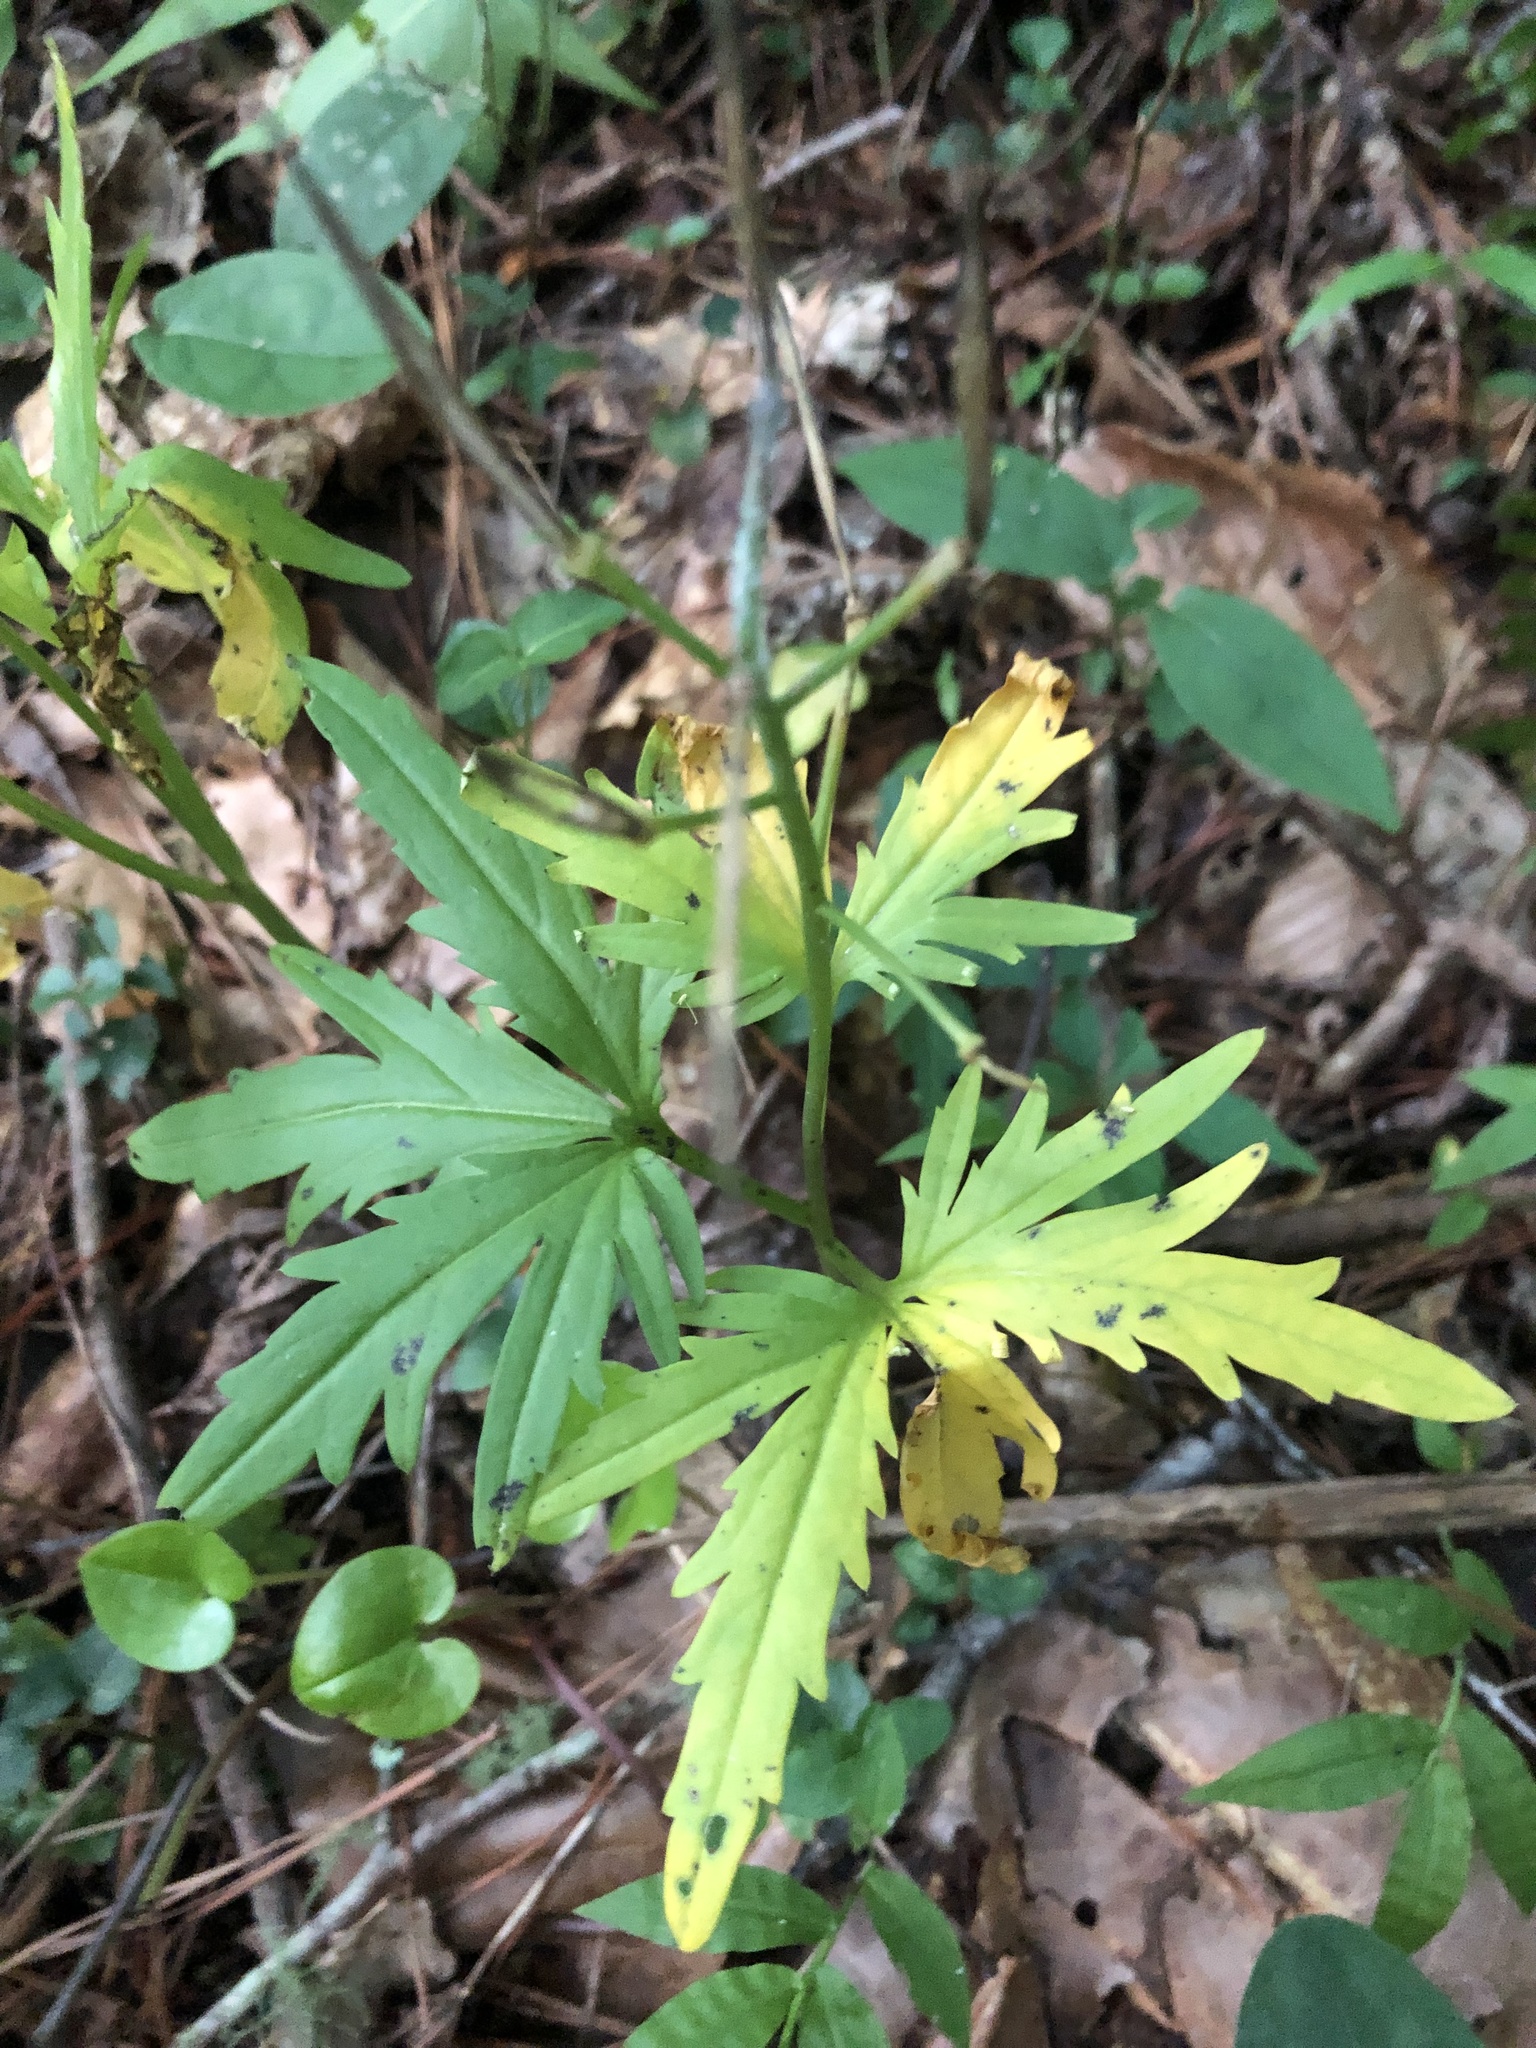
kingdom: Plantae
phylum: Tracheophyta
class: Magnoliopsida
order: Brassicales
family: Brassicaceae
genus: Cardamine
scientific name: Cardamine concatenata
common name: Cut-leaf toothcup
